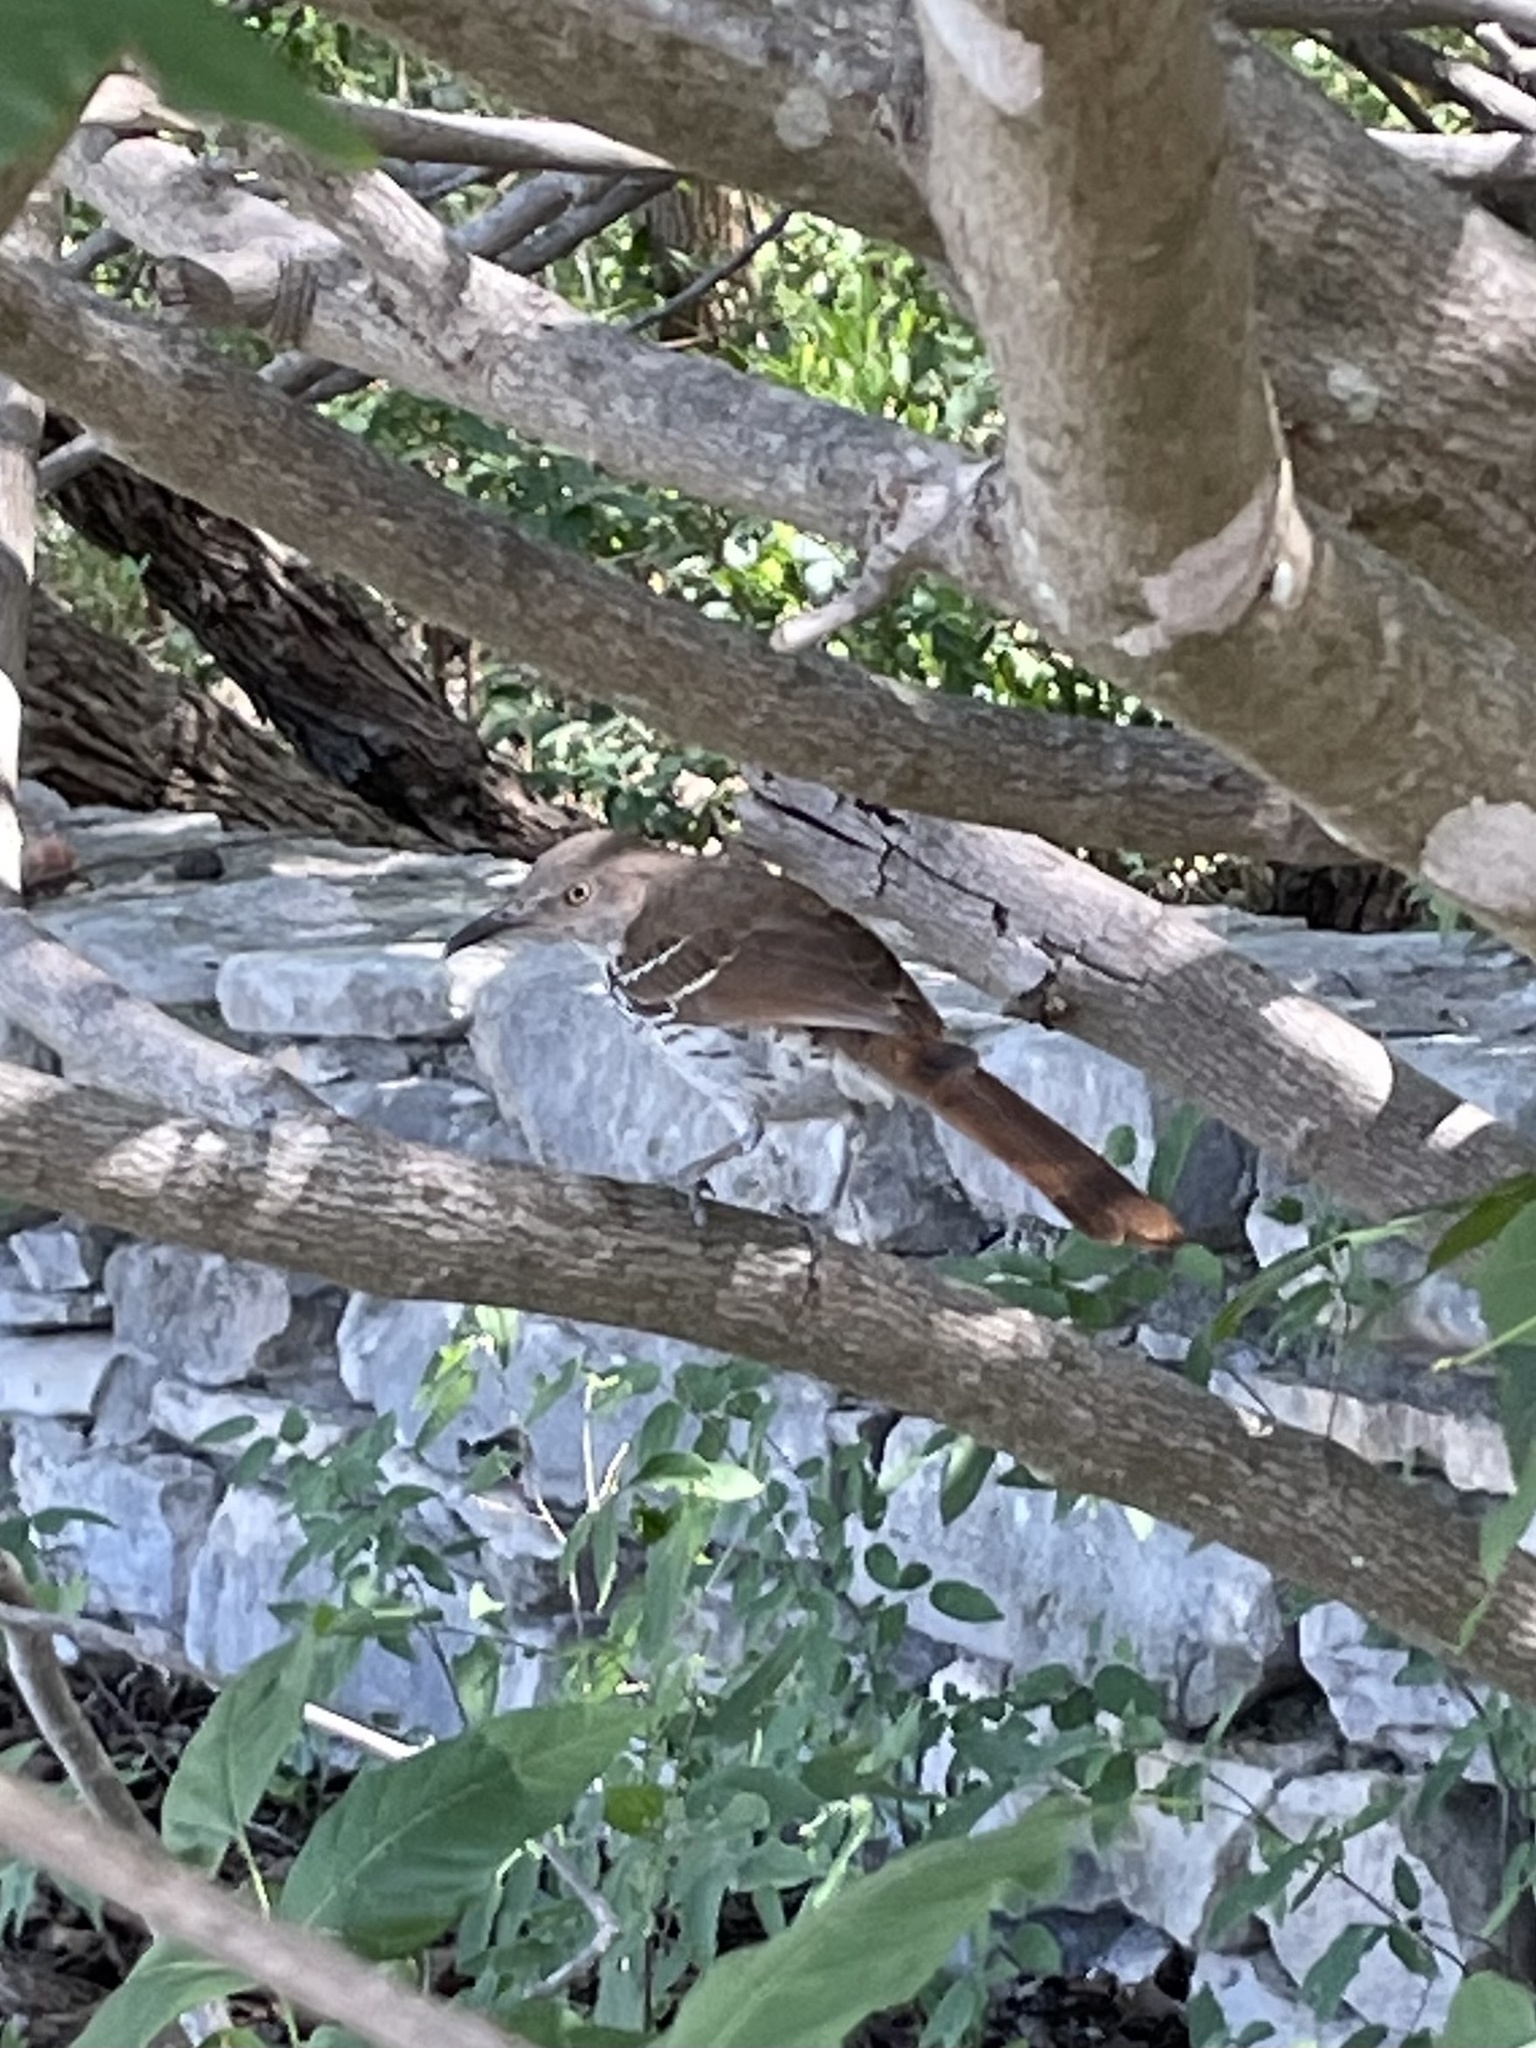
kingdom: Animalia
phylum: Chordata
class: Aves
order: Passeriformes
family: Mimidae
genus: Toxostoma
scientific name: Toxostoma longirostre
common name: Long-billed thrasher
